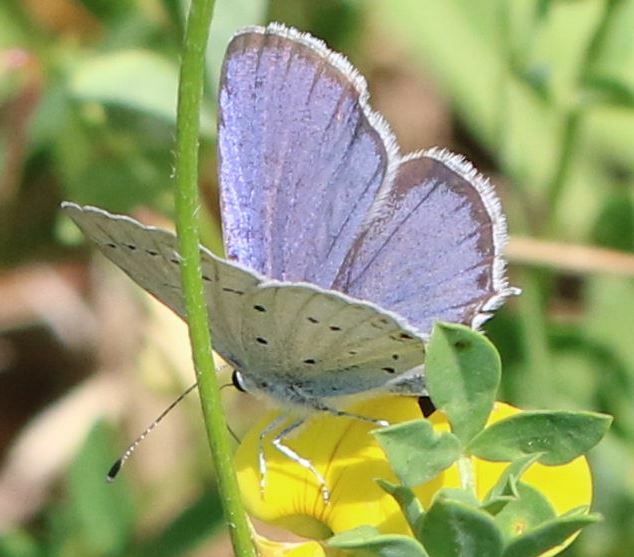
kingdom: Animalia
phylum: Arthropoda
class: Insecta
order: Lepidoptera
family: Lycaenidae
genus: Elkalyce
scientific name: Elkalyce argiades
